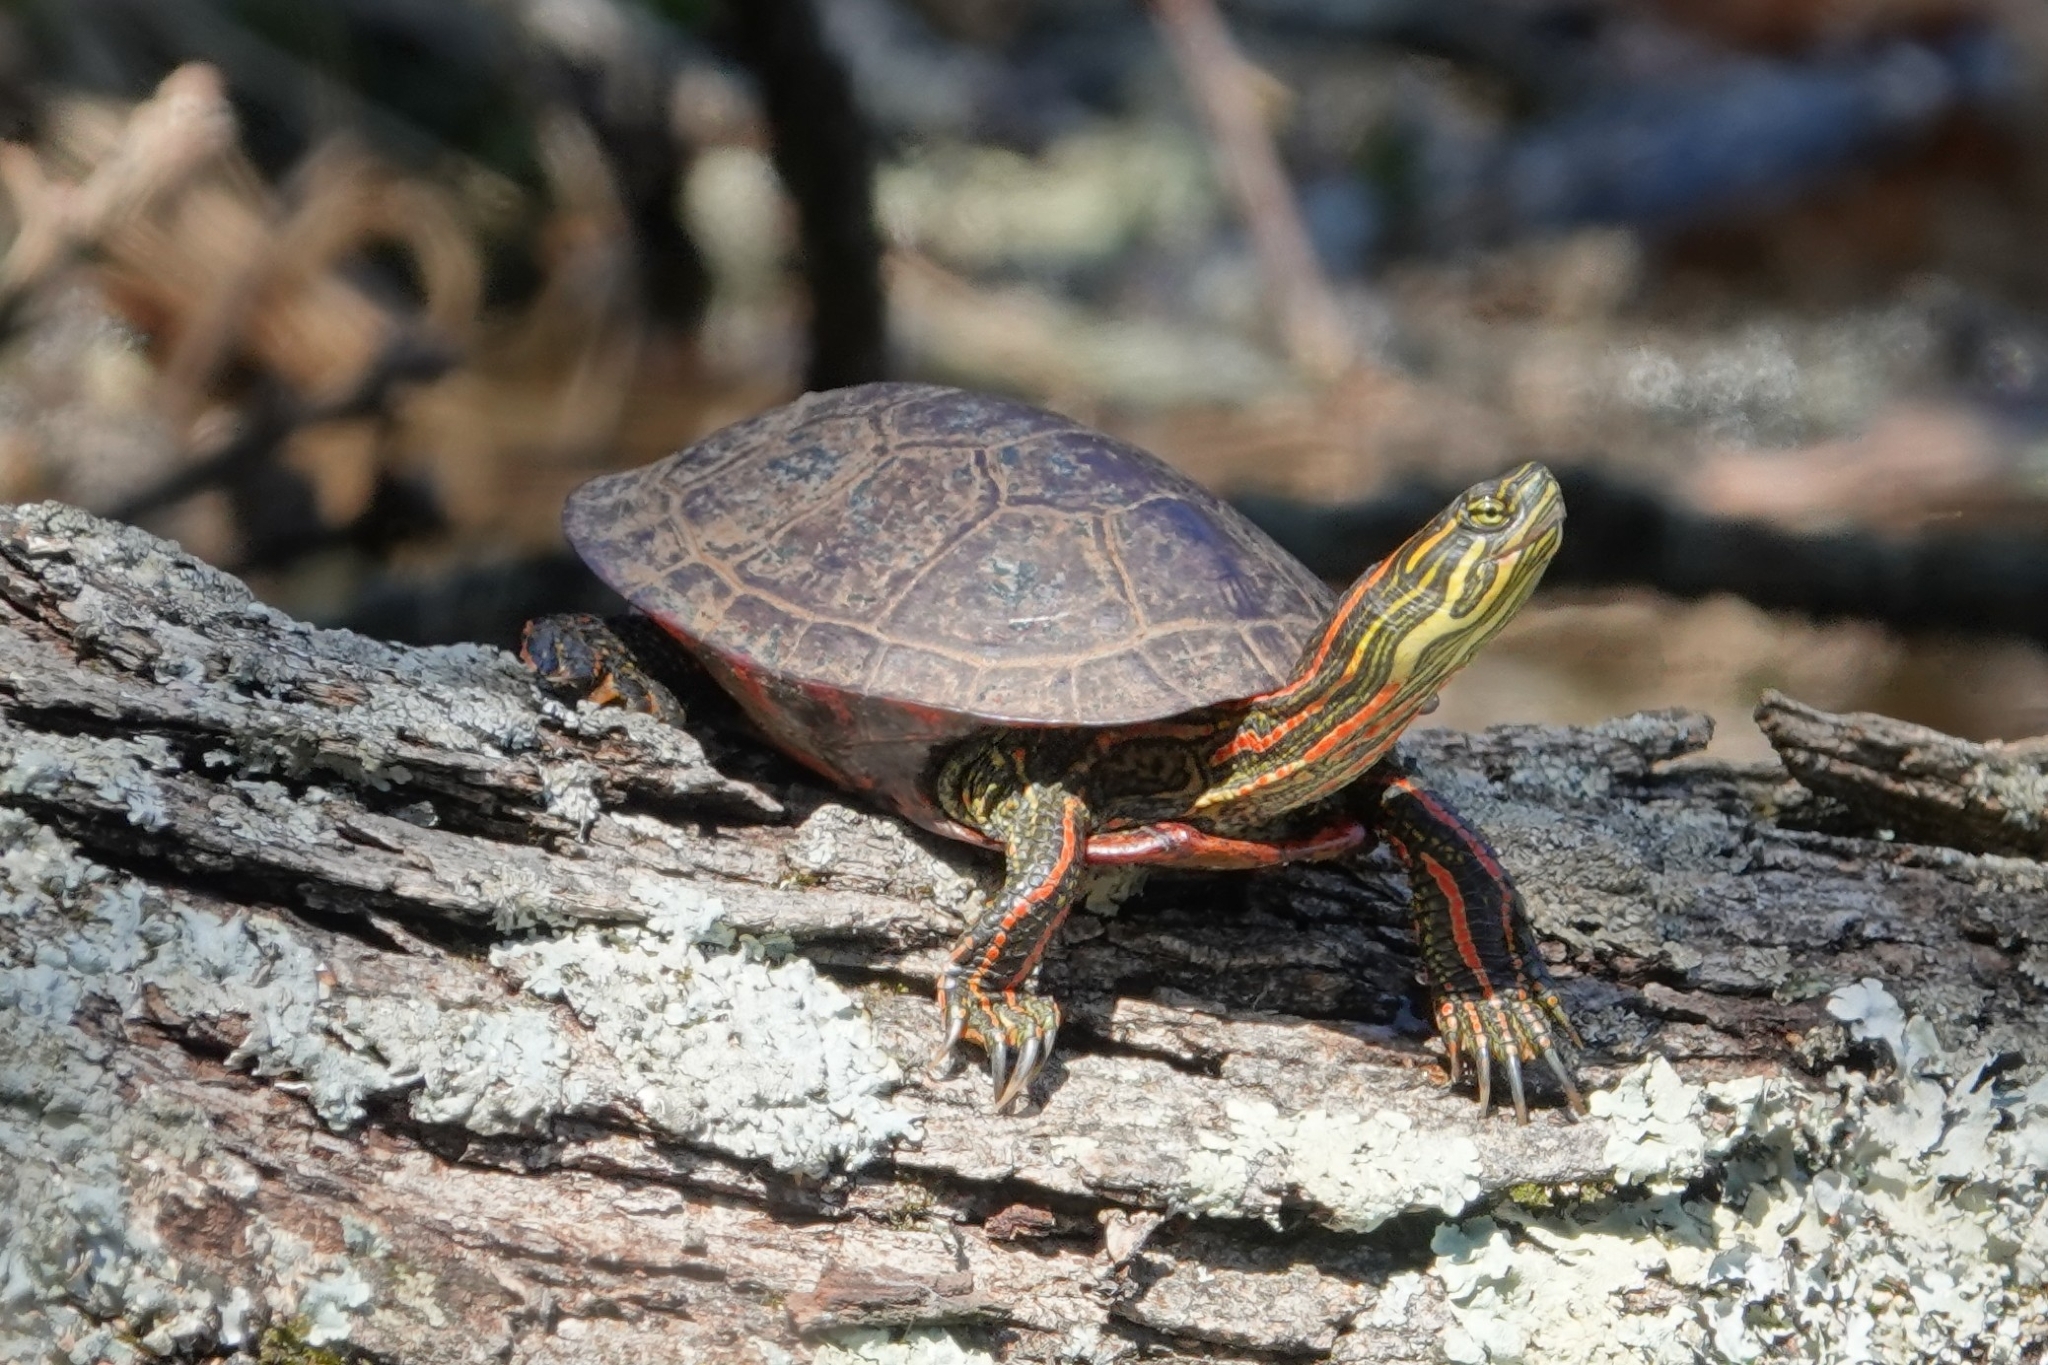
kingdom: Animalia
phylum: Chordata
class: Testudines
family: Emydidae
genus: Chrysemys
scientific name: Chrysemys picta
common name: Painted turtle
